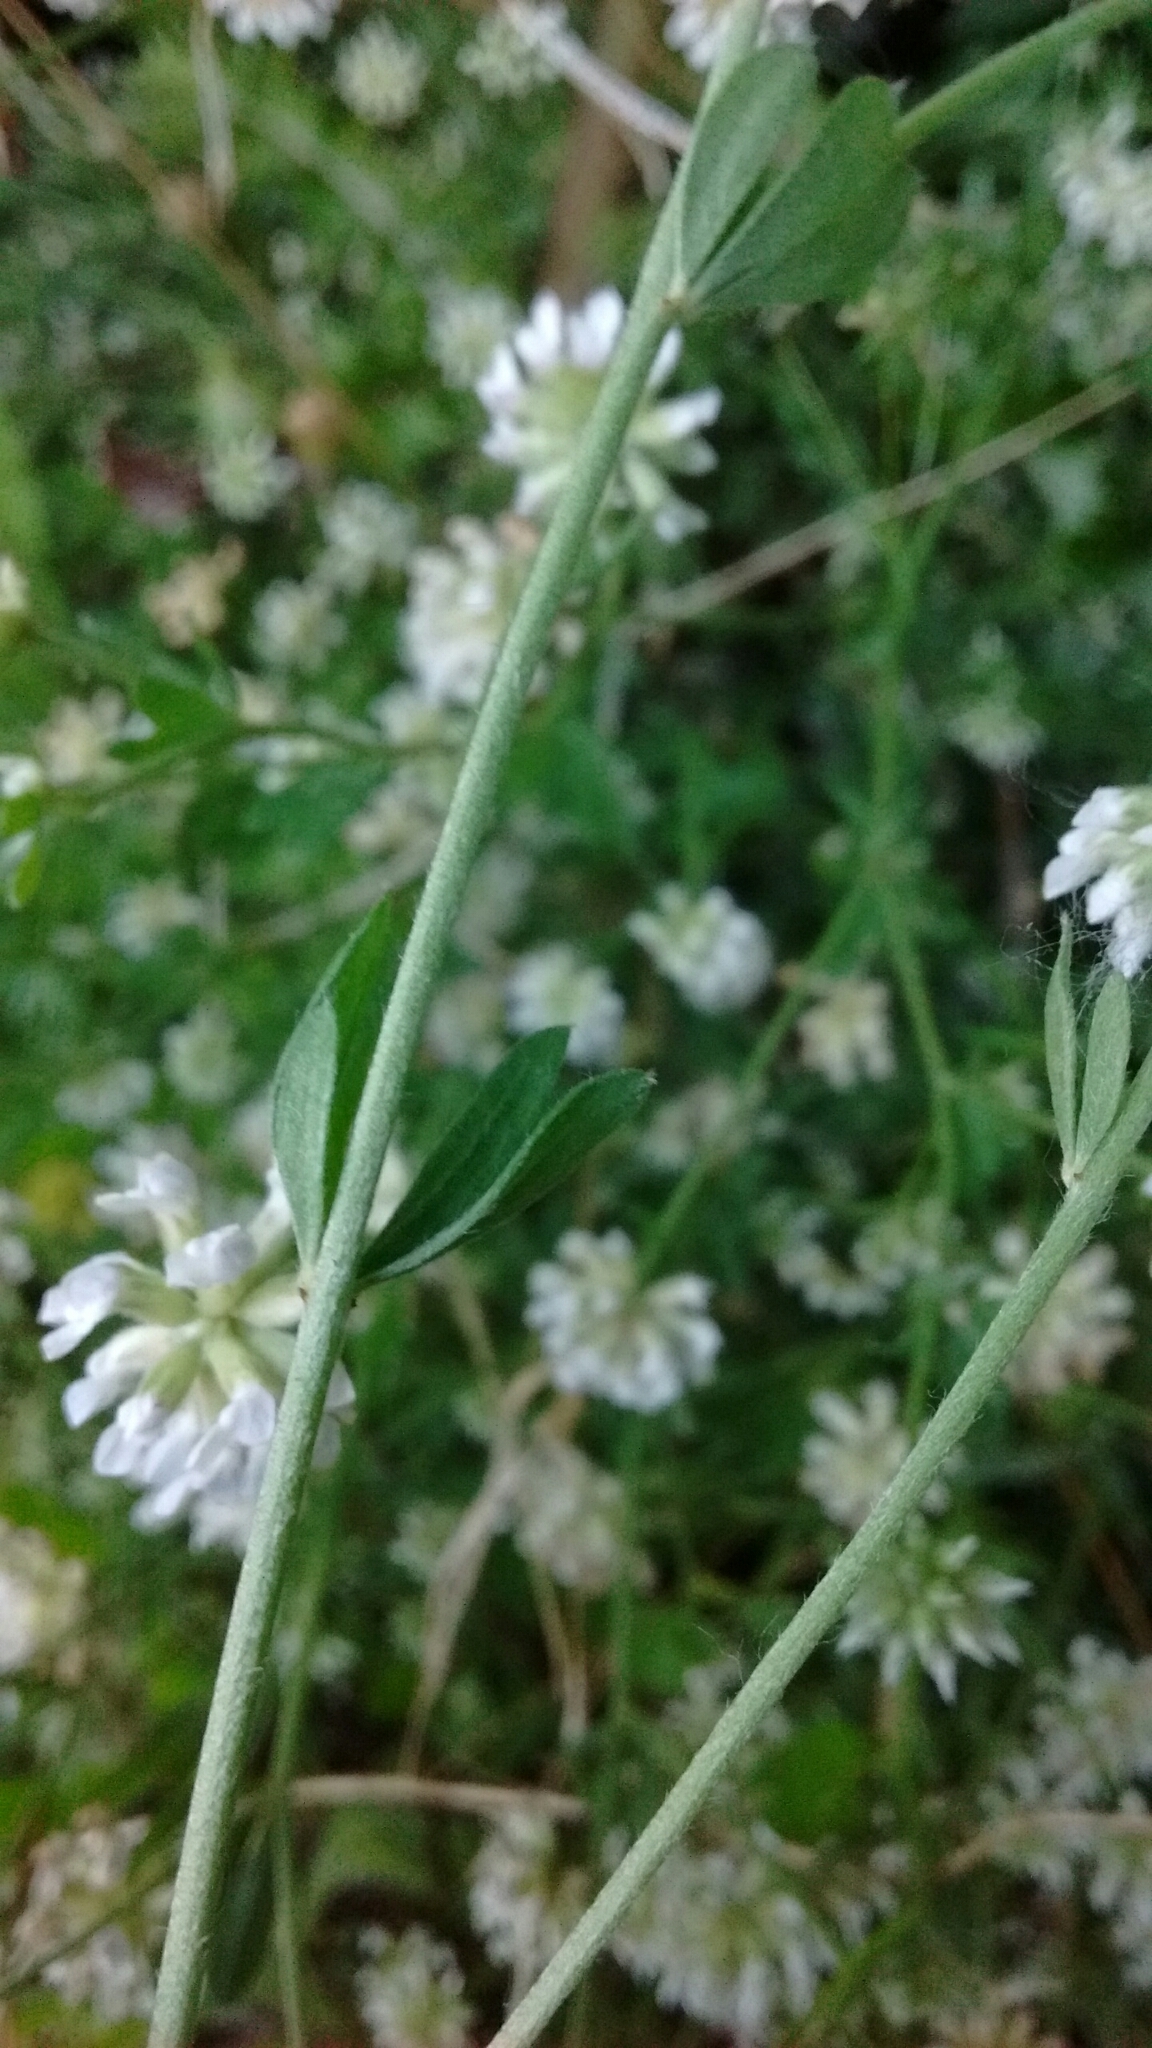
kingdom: Plantae
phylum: Tracheophyta
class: Magnoliopsida
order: Fabales
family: Fabaceae
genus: Lotus
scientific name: Lotus dorycnium
